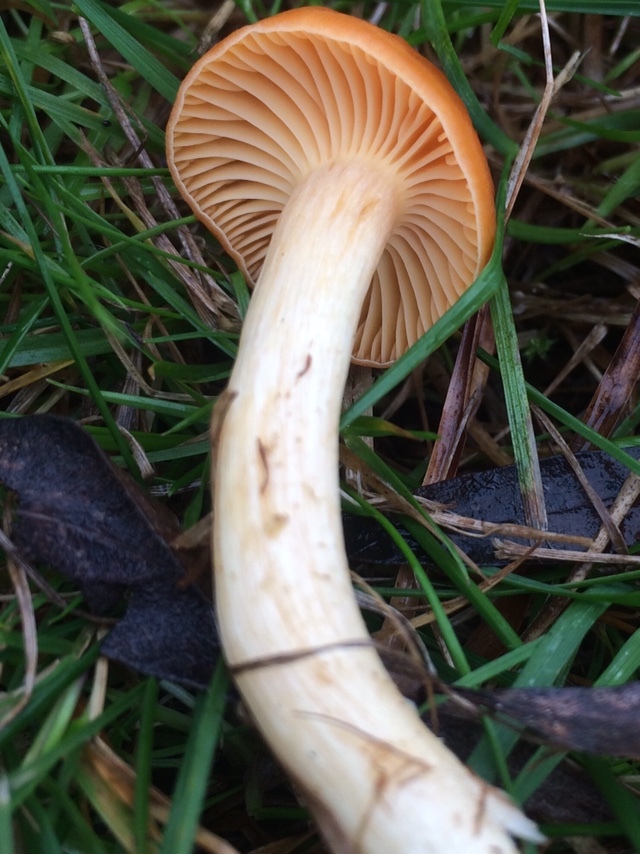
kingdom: Fungi
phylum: Basidiomycota
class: Agaricomycetes
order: Agaricales
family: Hygrophoraceae
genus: Cuphophyllus
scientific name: Cuphophyllus pratensis
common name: Meadow waxcap
